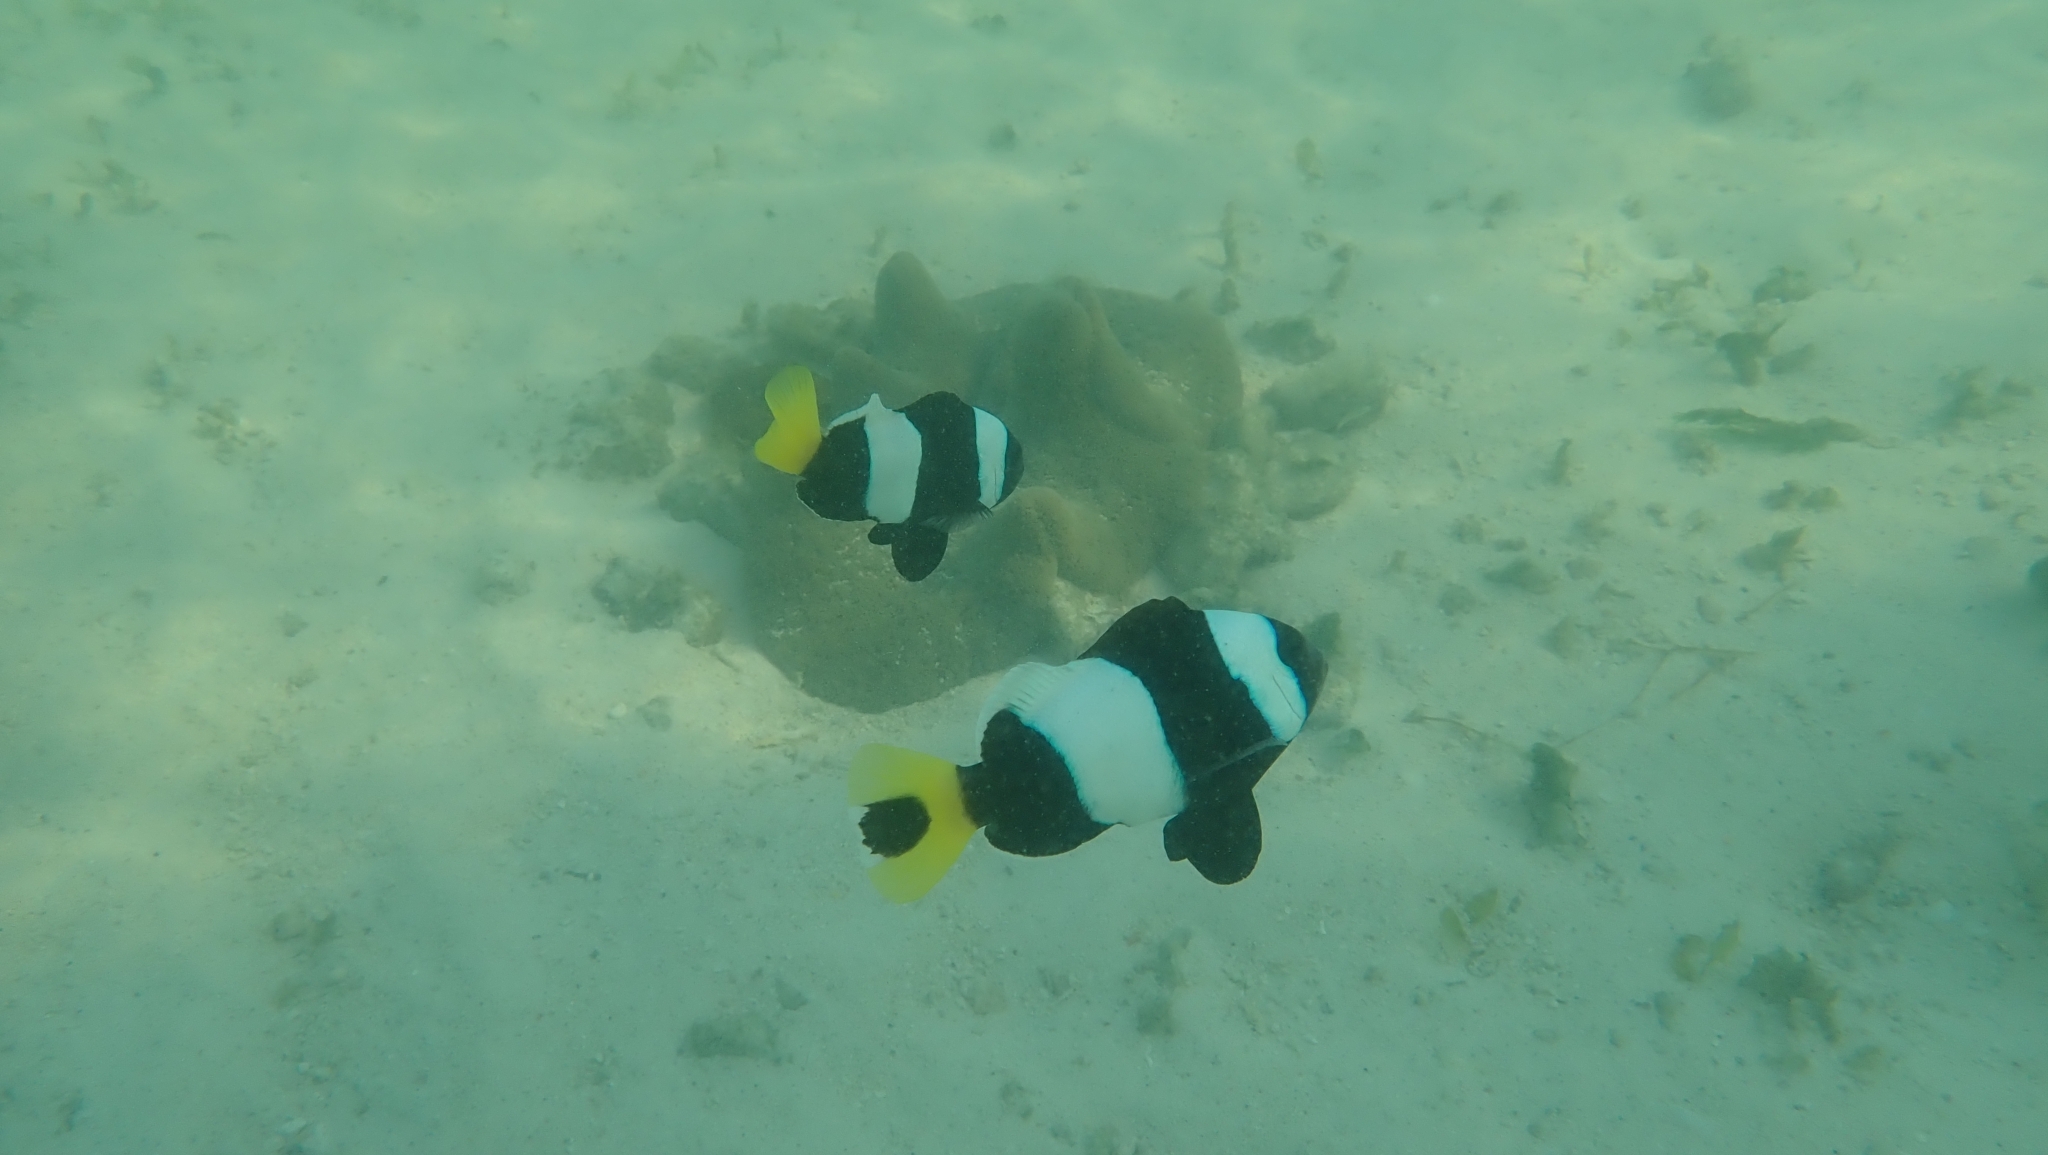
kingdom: Animalia
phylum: Chordata
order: Perciformes
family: Pomacentridae
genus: Amphiprion
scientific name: Amphiprion sebae
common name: Sebae anemonefish
